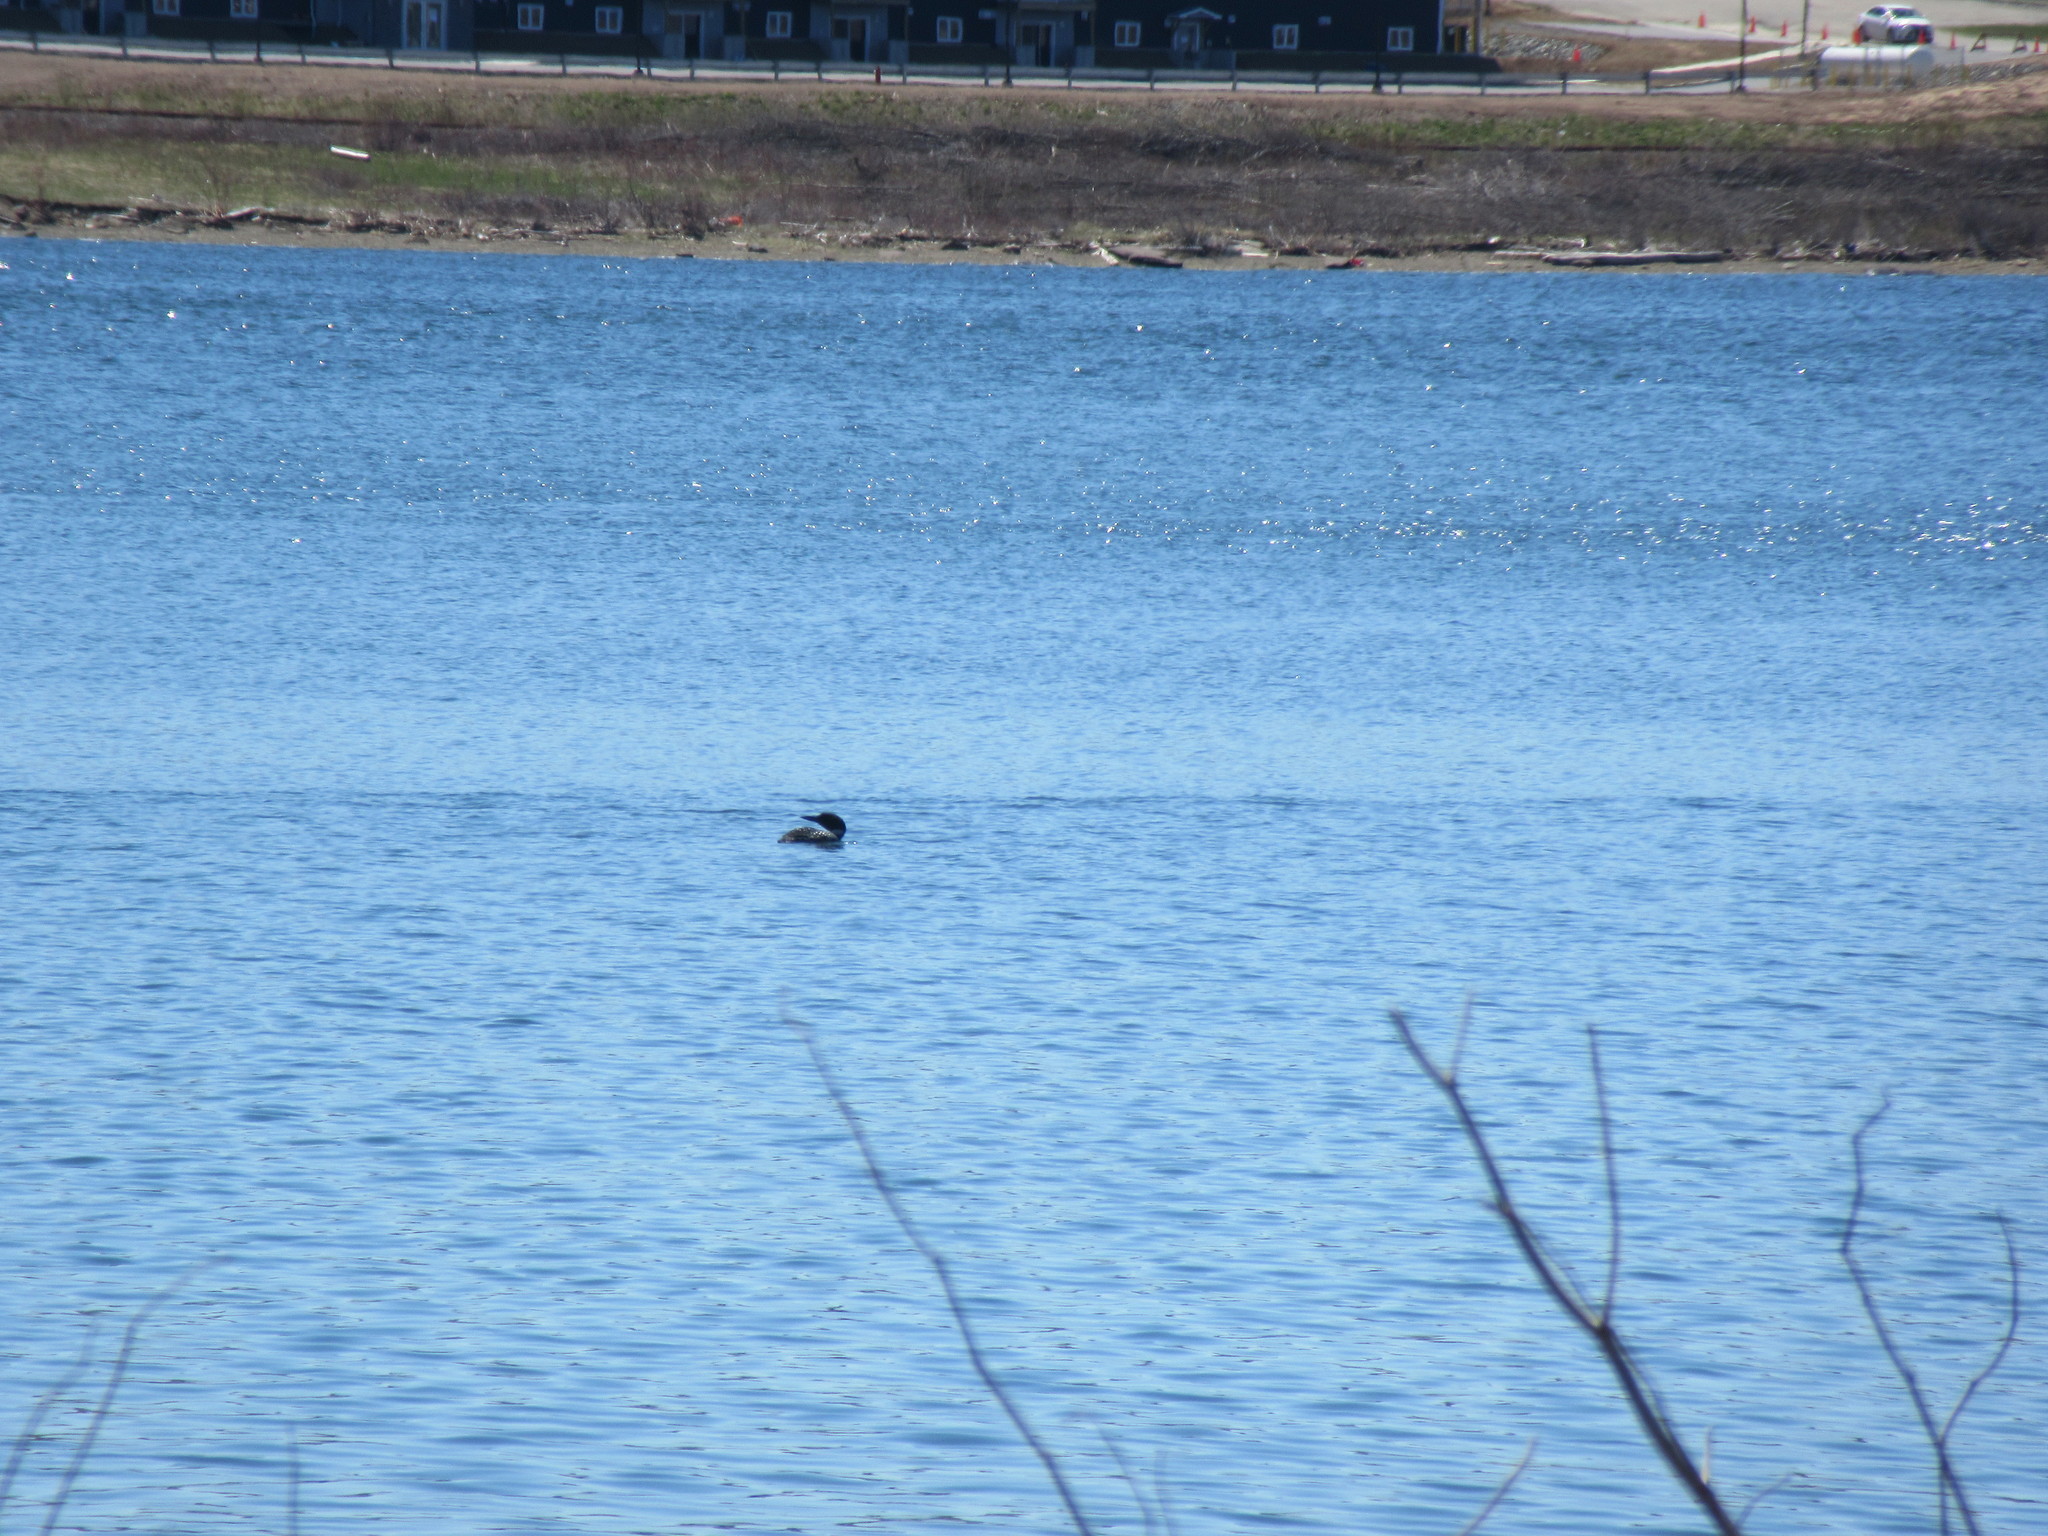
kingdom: Animalia
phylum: Chordata
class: Aves
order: Gaviiformes
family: Gaviidae
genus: Gavia
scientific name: Gavia immer
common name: Common loon
